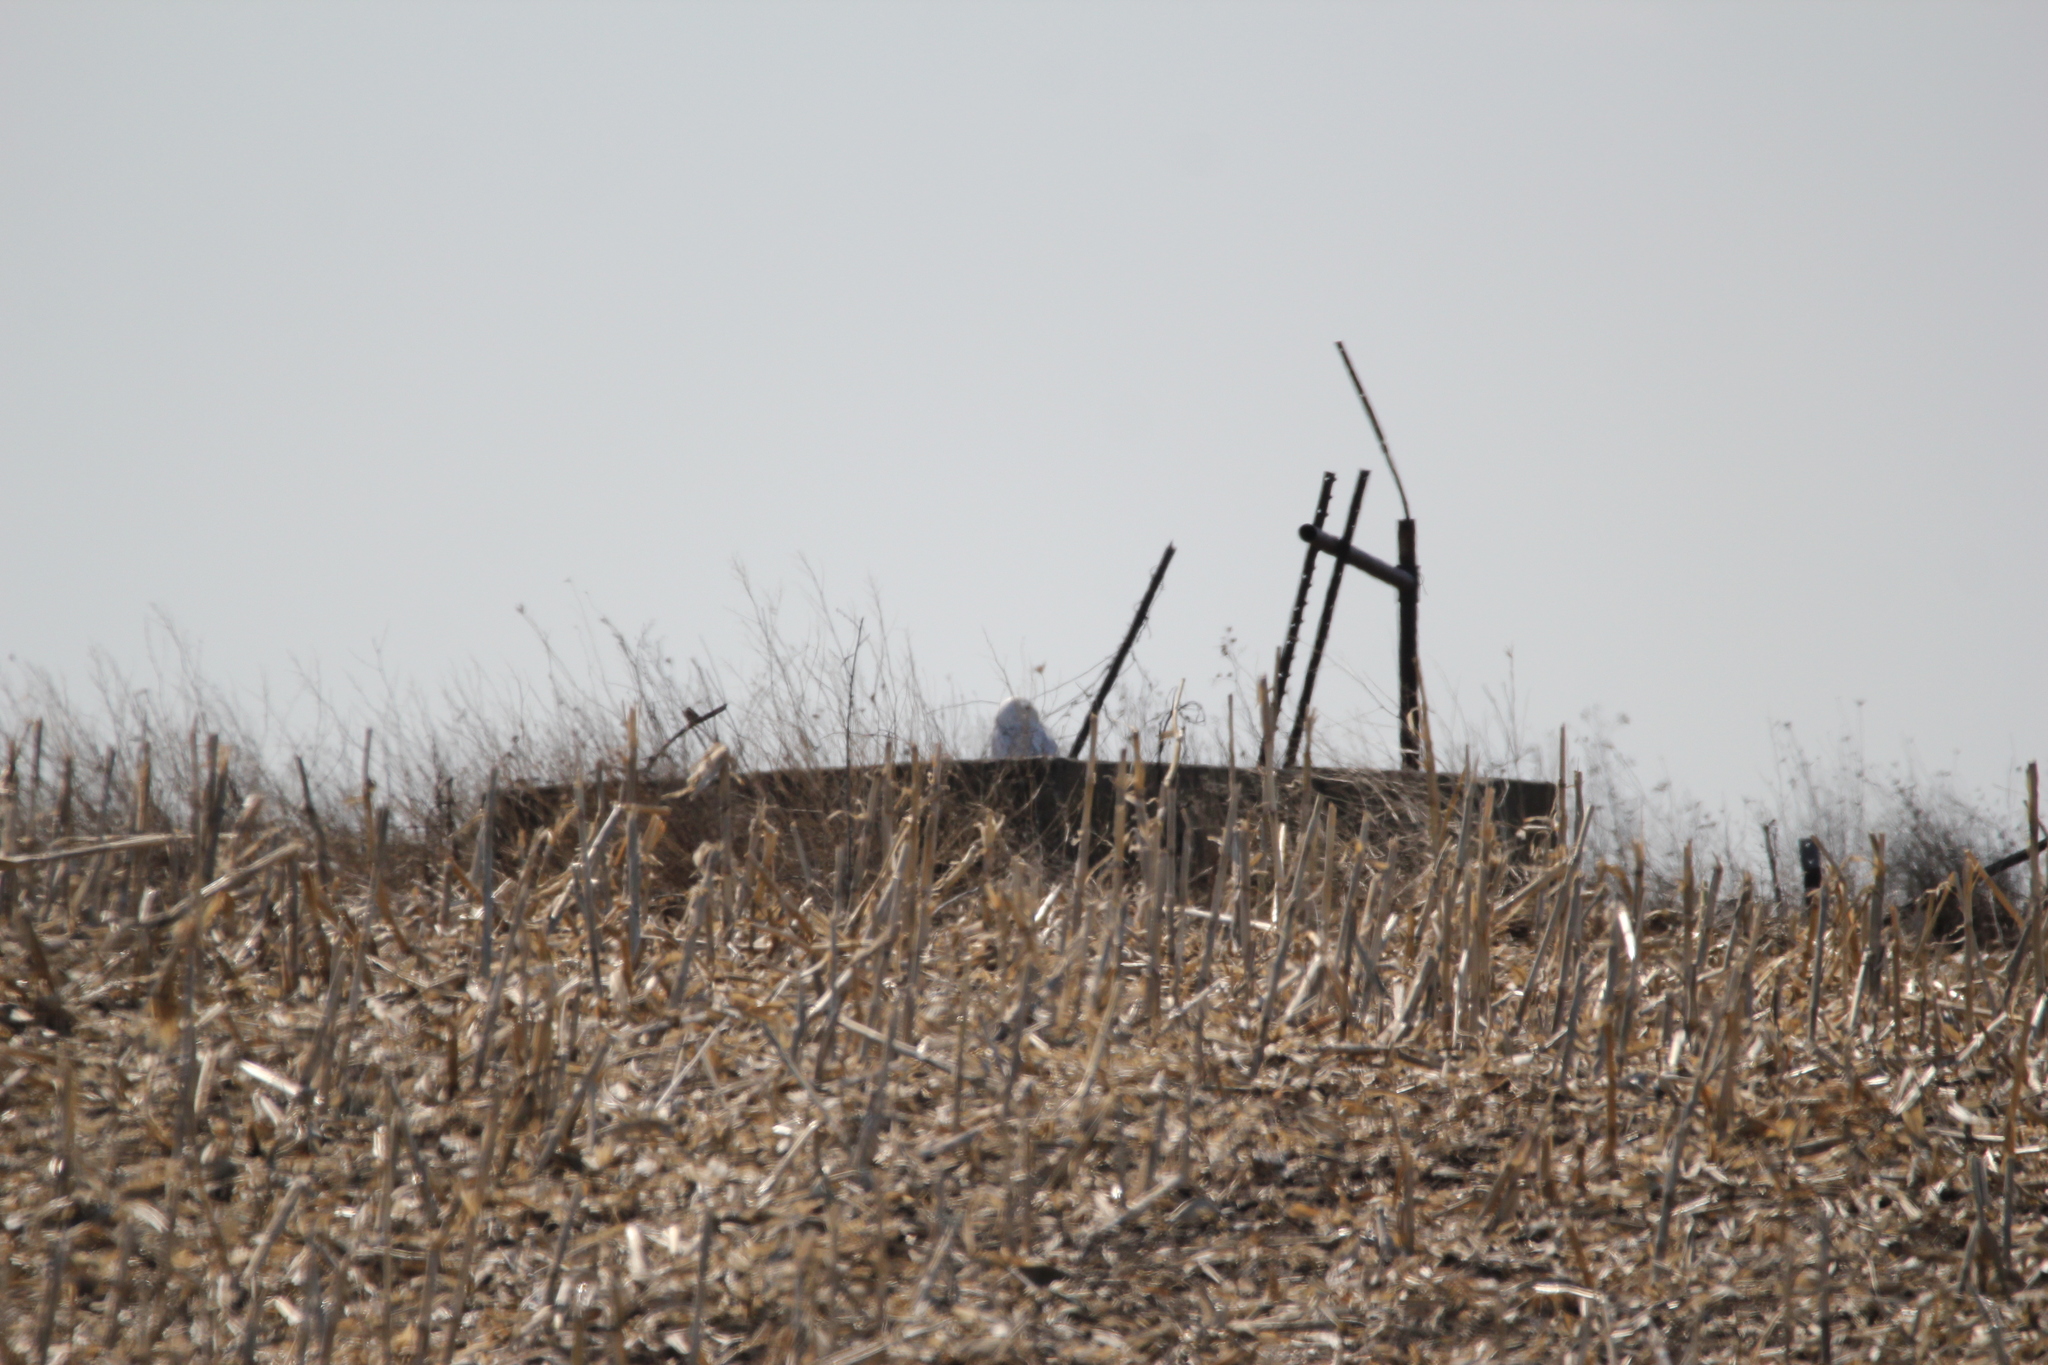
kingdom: Animalia
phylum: Chordata
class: Aves
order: Strigiformes
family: Strigidae
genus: Bubo
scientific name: Bubo scandiacus
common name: Snowy owl
